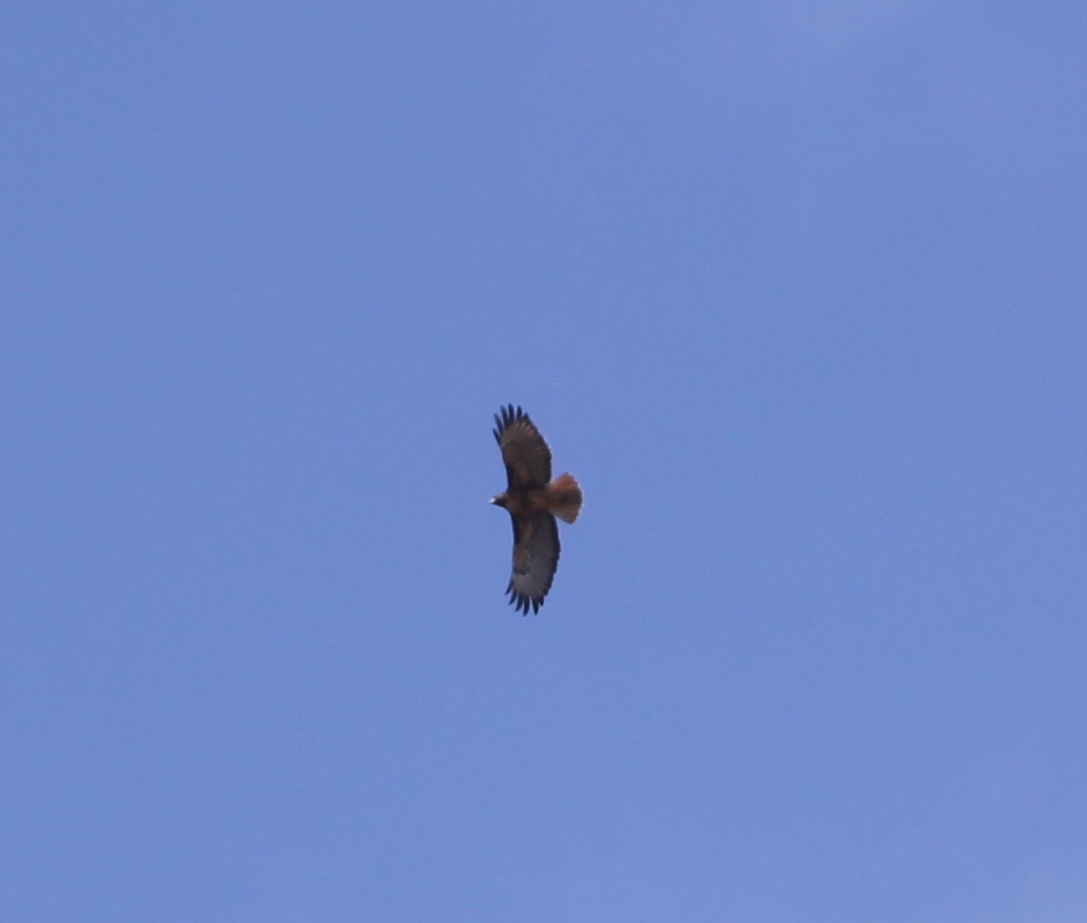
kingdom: Animalia
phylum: Chordata
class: Aves
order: Accipitriformes
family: Accipitridae
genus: Buteo
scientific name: Buteo jamaicensis
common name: Red-tailed hawk
